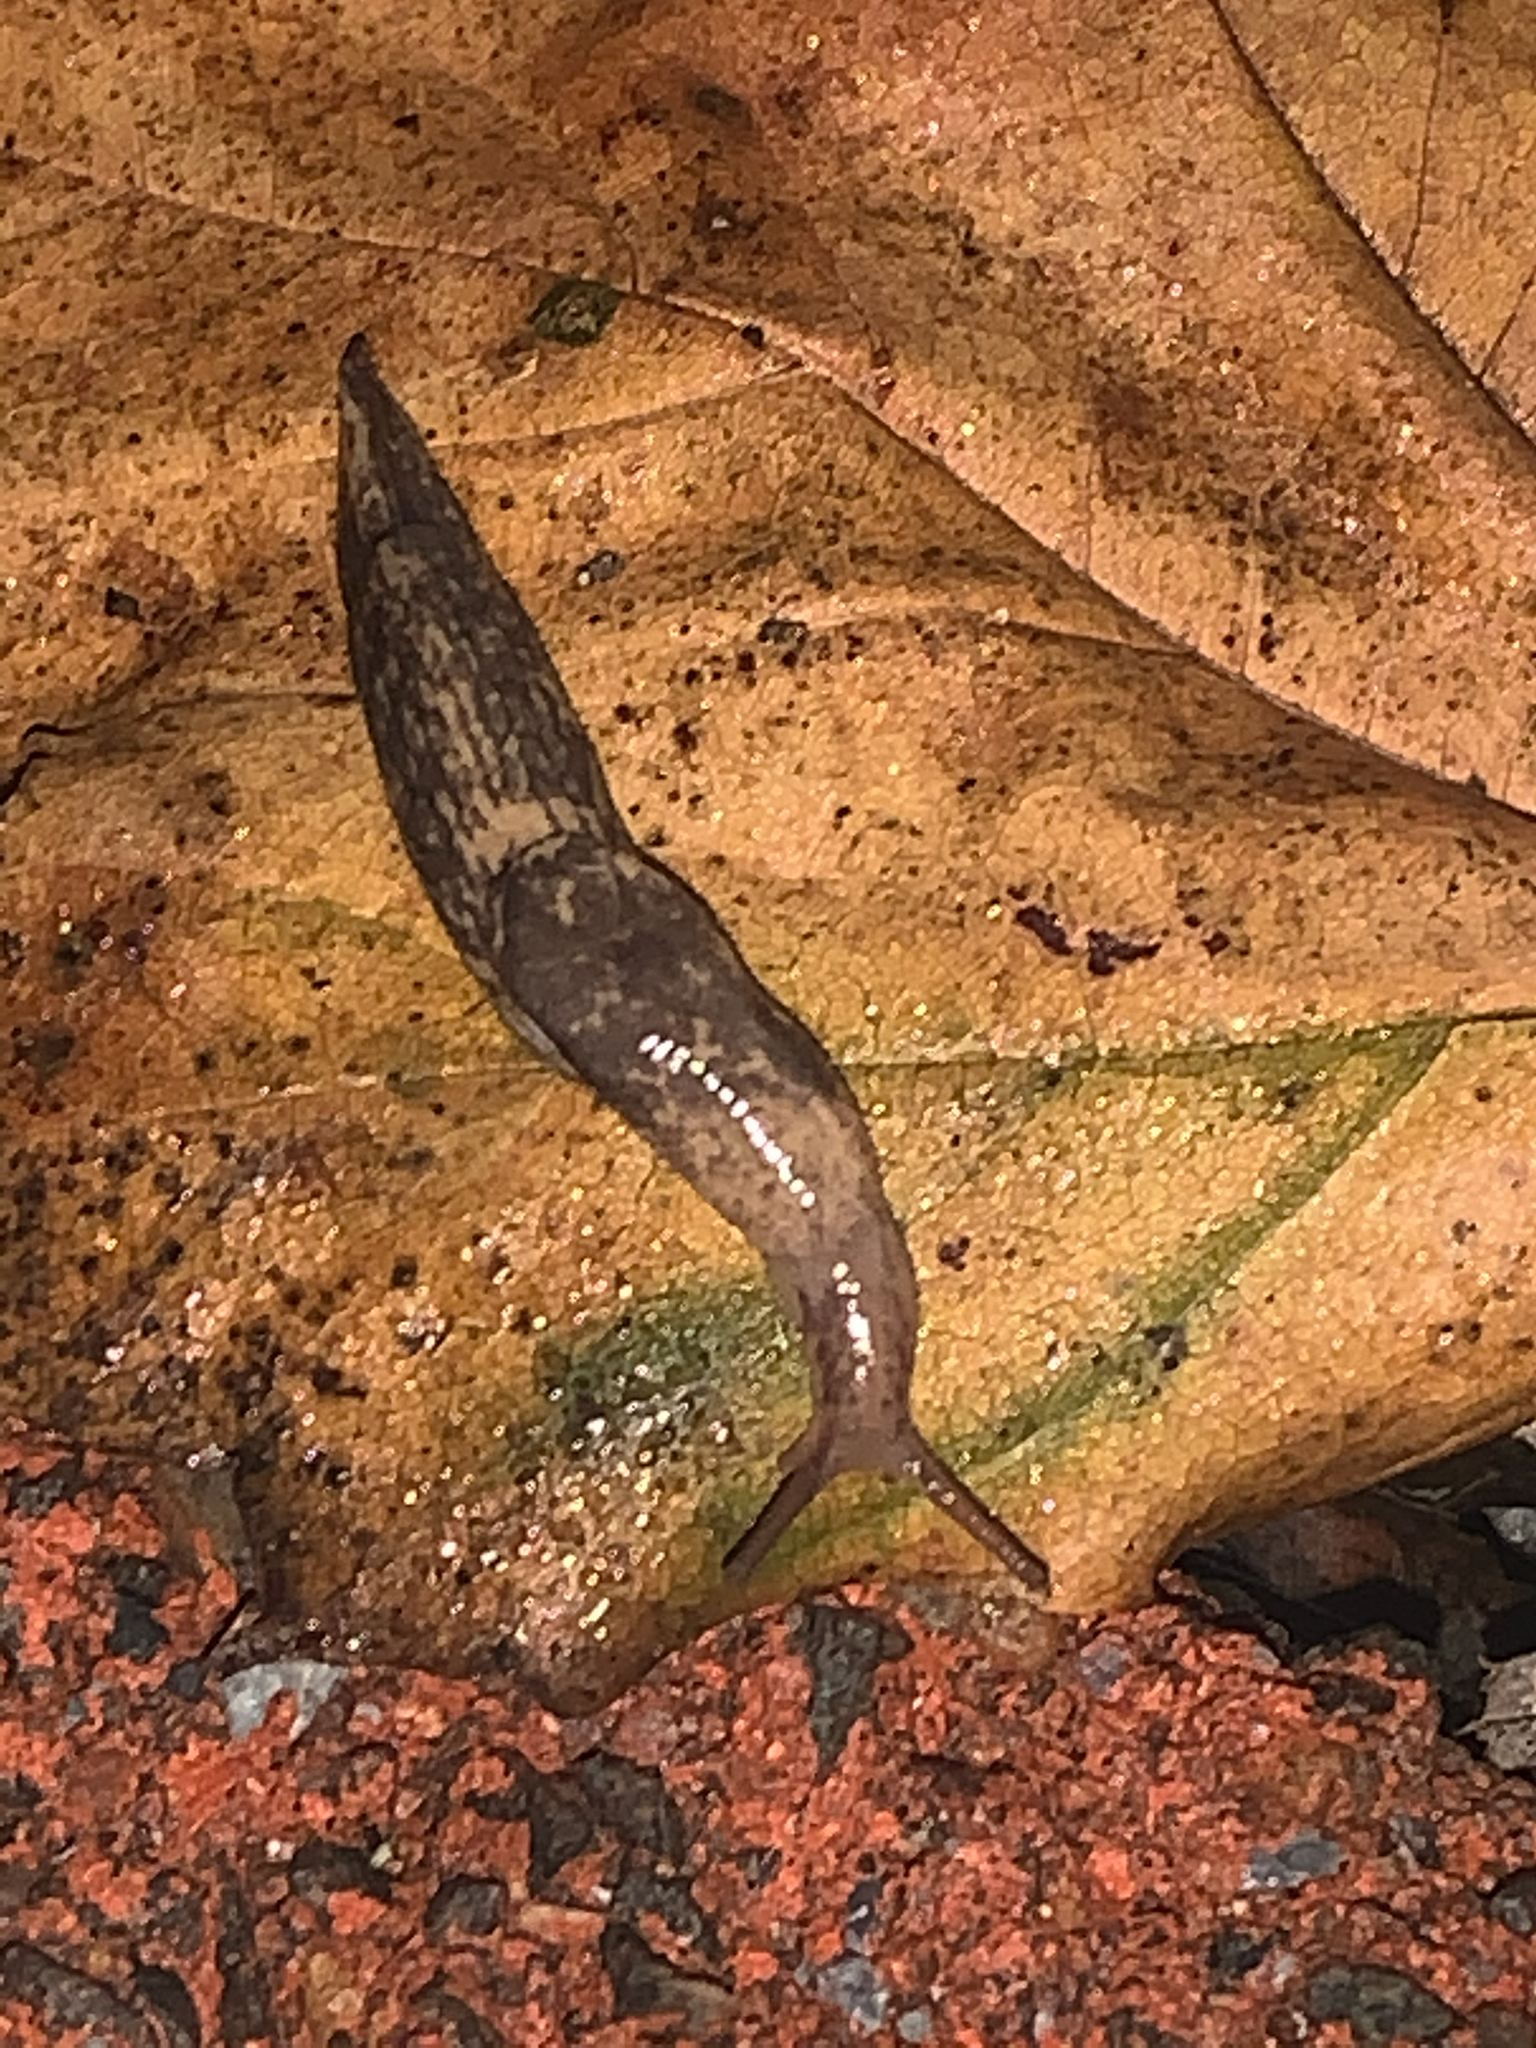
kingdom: Animalia
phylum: Mollusca
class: Gastropoda
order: Stylommatophora
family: Agriolimacidae
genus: Deroceras
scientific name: Deroceras reticulatum
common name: Gray field slug
